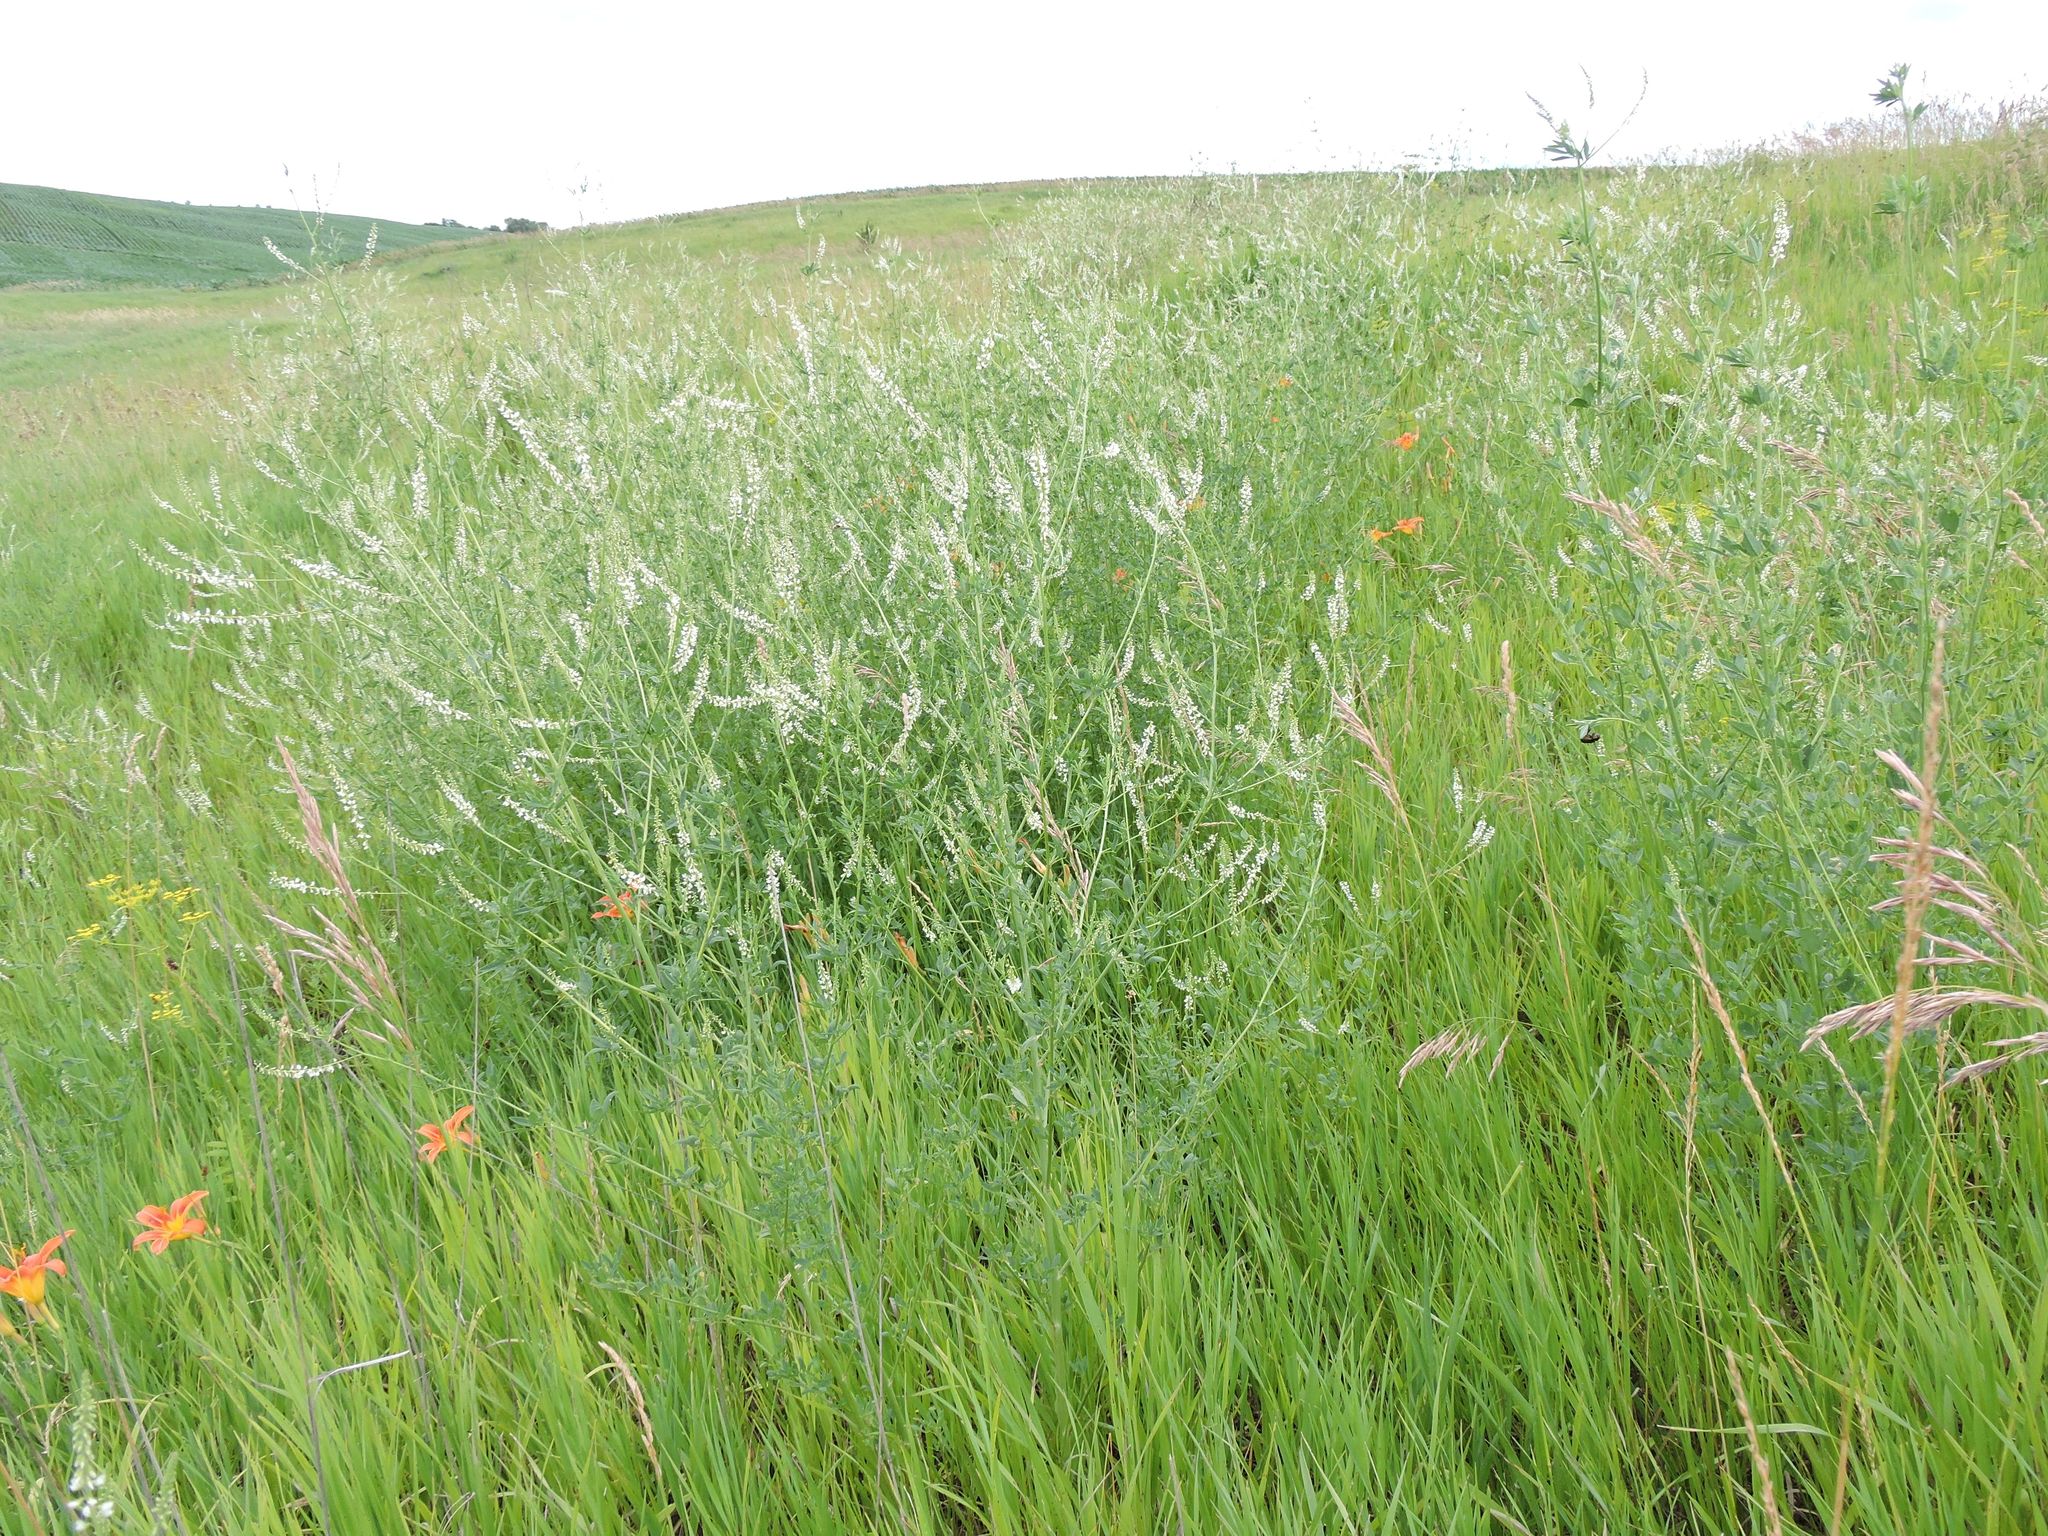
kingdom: Plantae
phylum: Tracheophyta
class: Magnoliopsida
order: Fabales
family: Fabaceae
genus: Melilotus
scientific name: Melilotus albus
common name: White melilot
